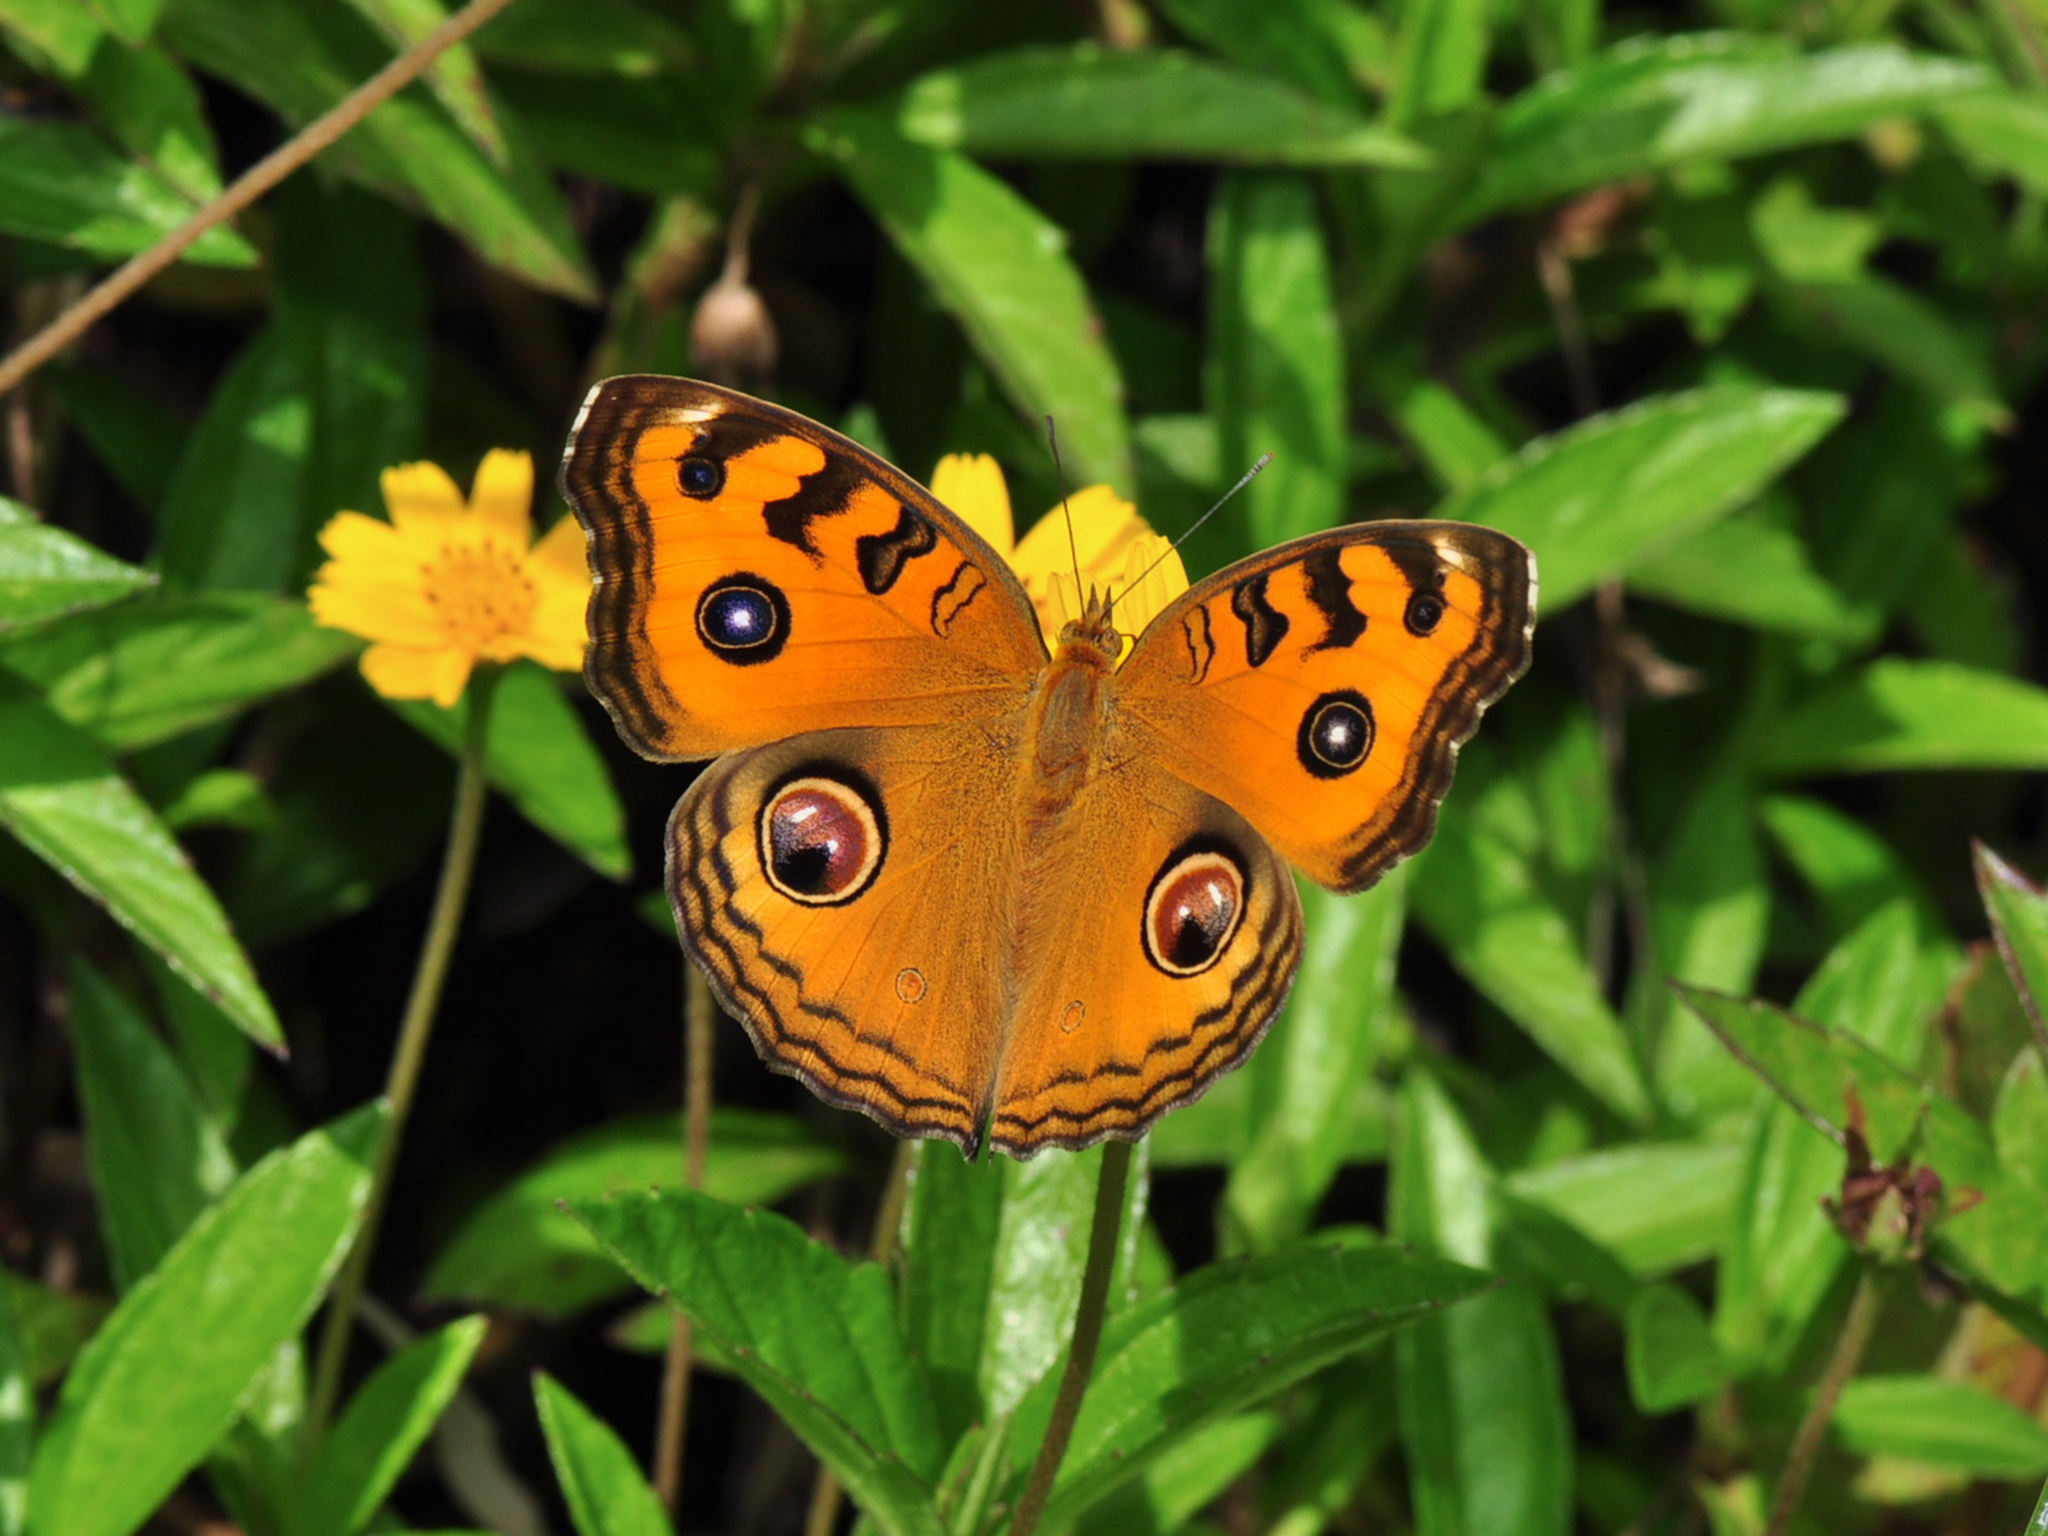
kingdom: Animalia
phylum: Arthropoda
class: Insecta
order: Lepidoptera
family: Nymphalidae
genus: Junonia
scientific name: Junonia almana
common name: Peacock pansy
